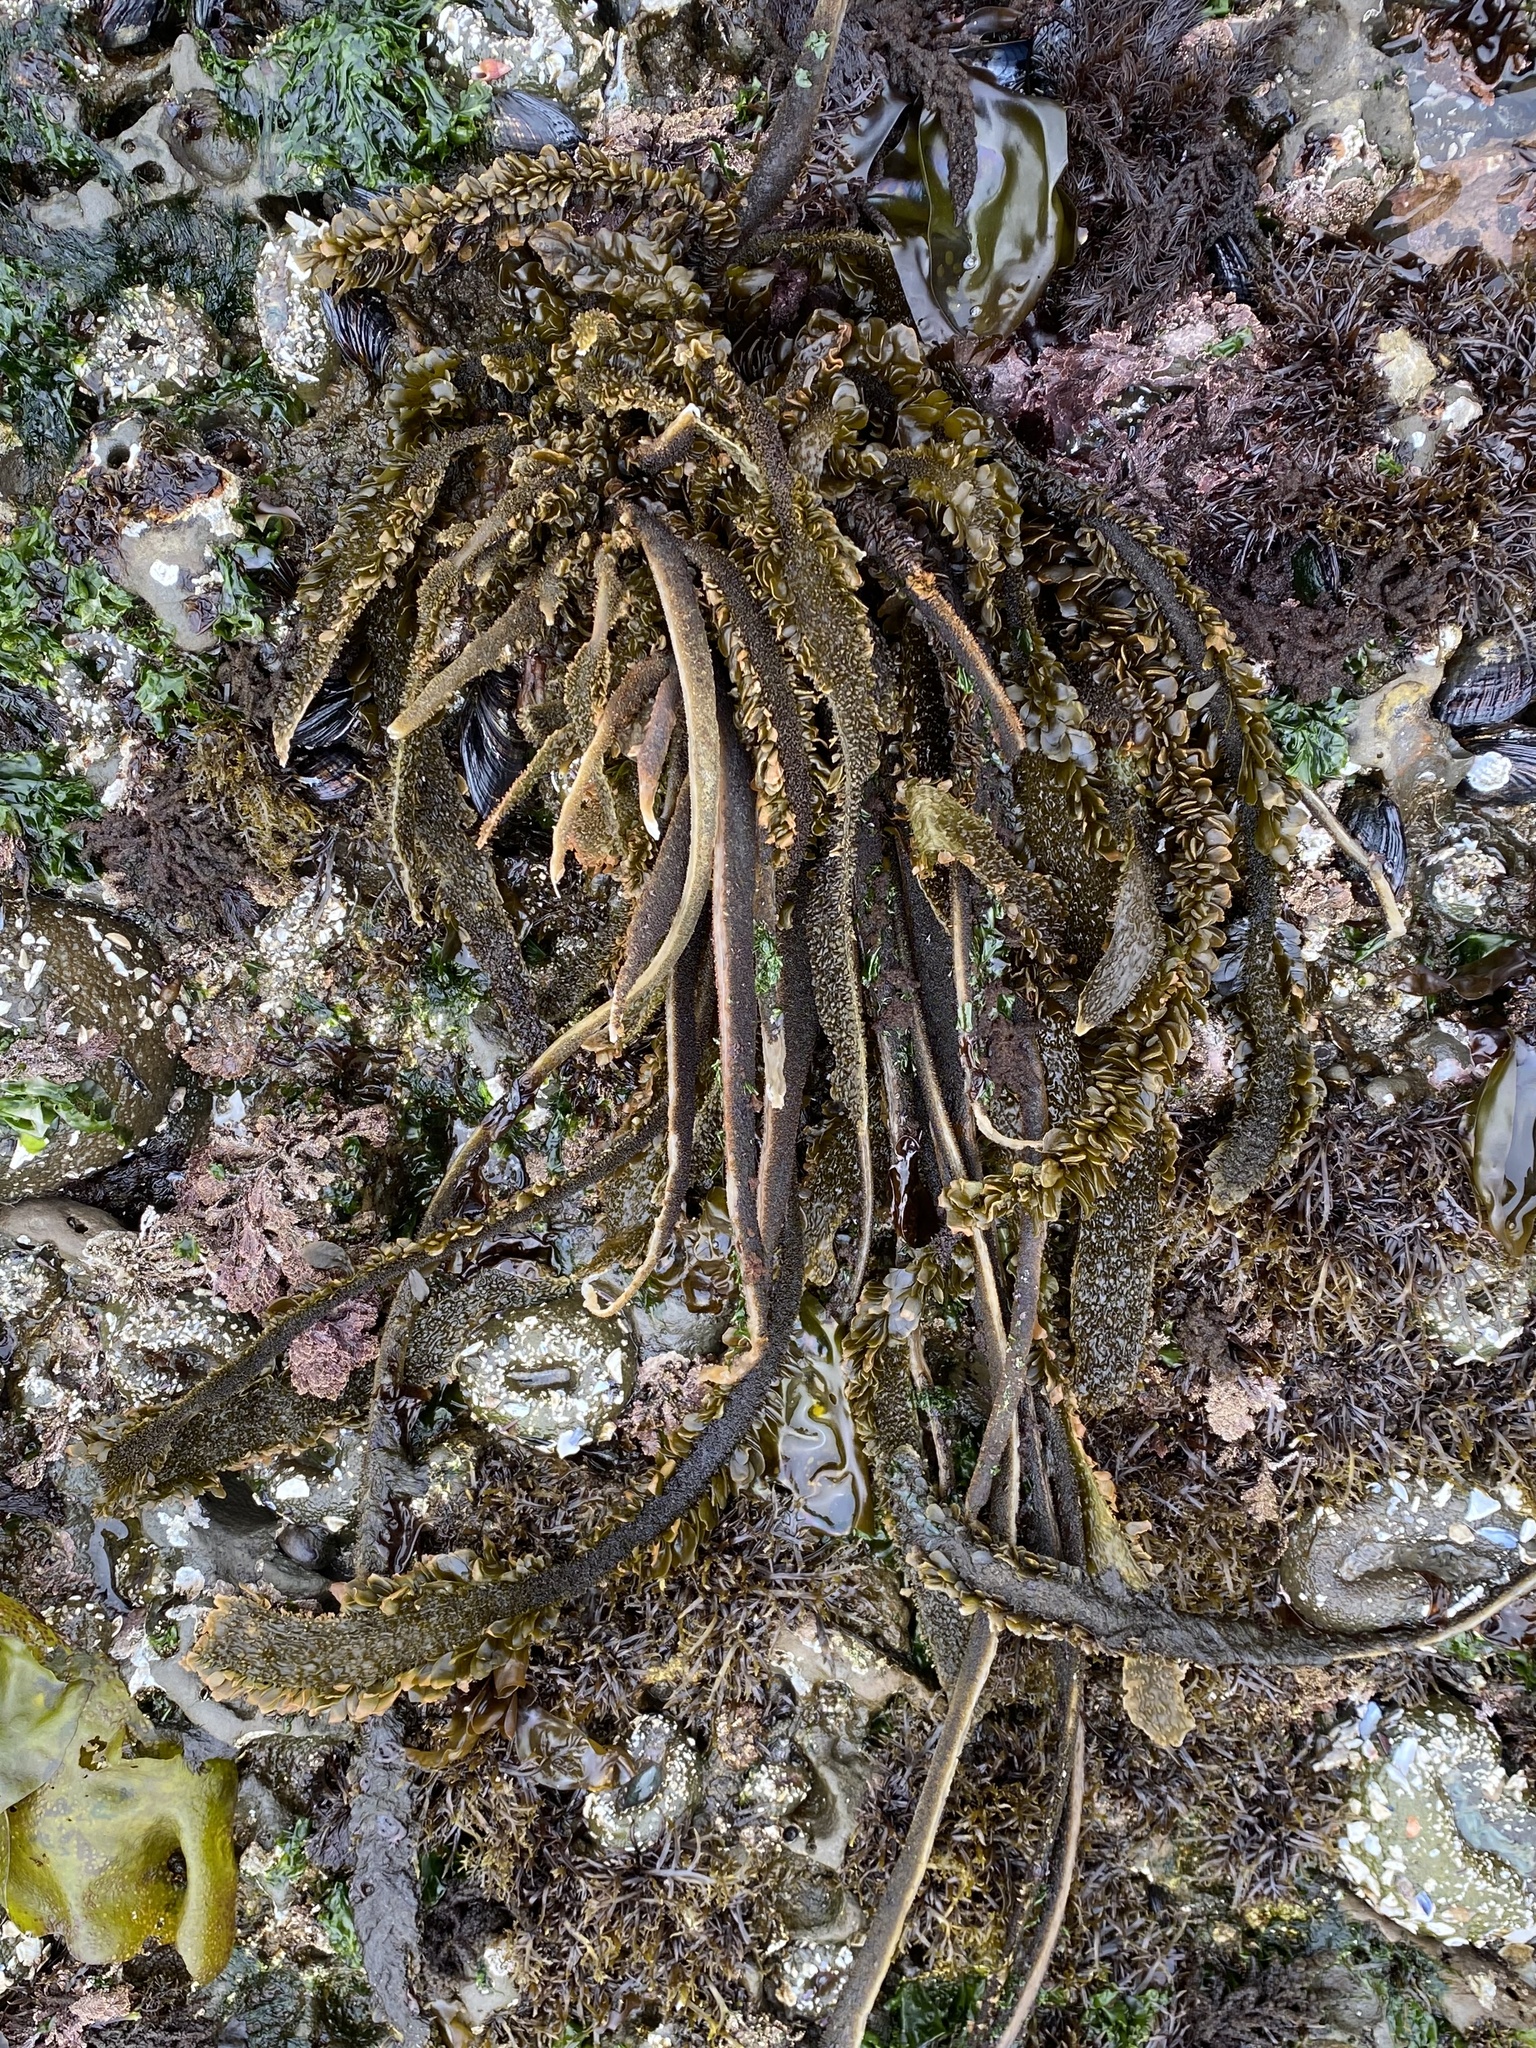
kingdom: Chromista
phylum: Ochrophyta
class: Phaeophyceae
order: Laminariales
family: Lessoniaceae
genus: Egregia
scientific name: Egregia menziesii
